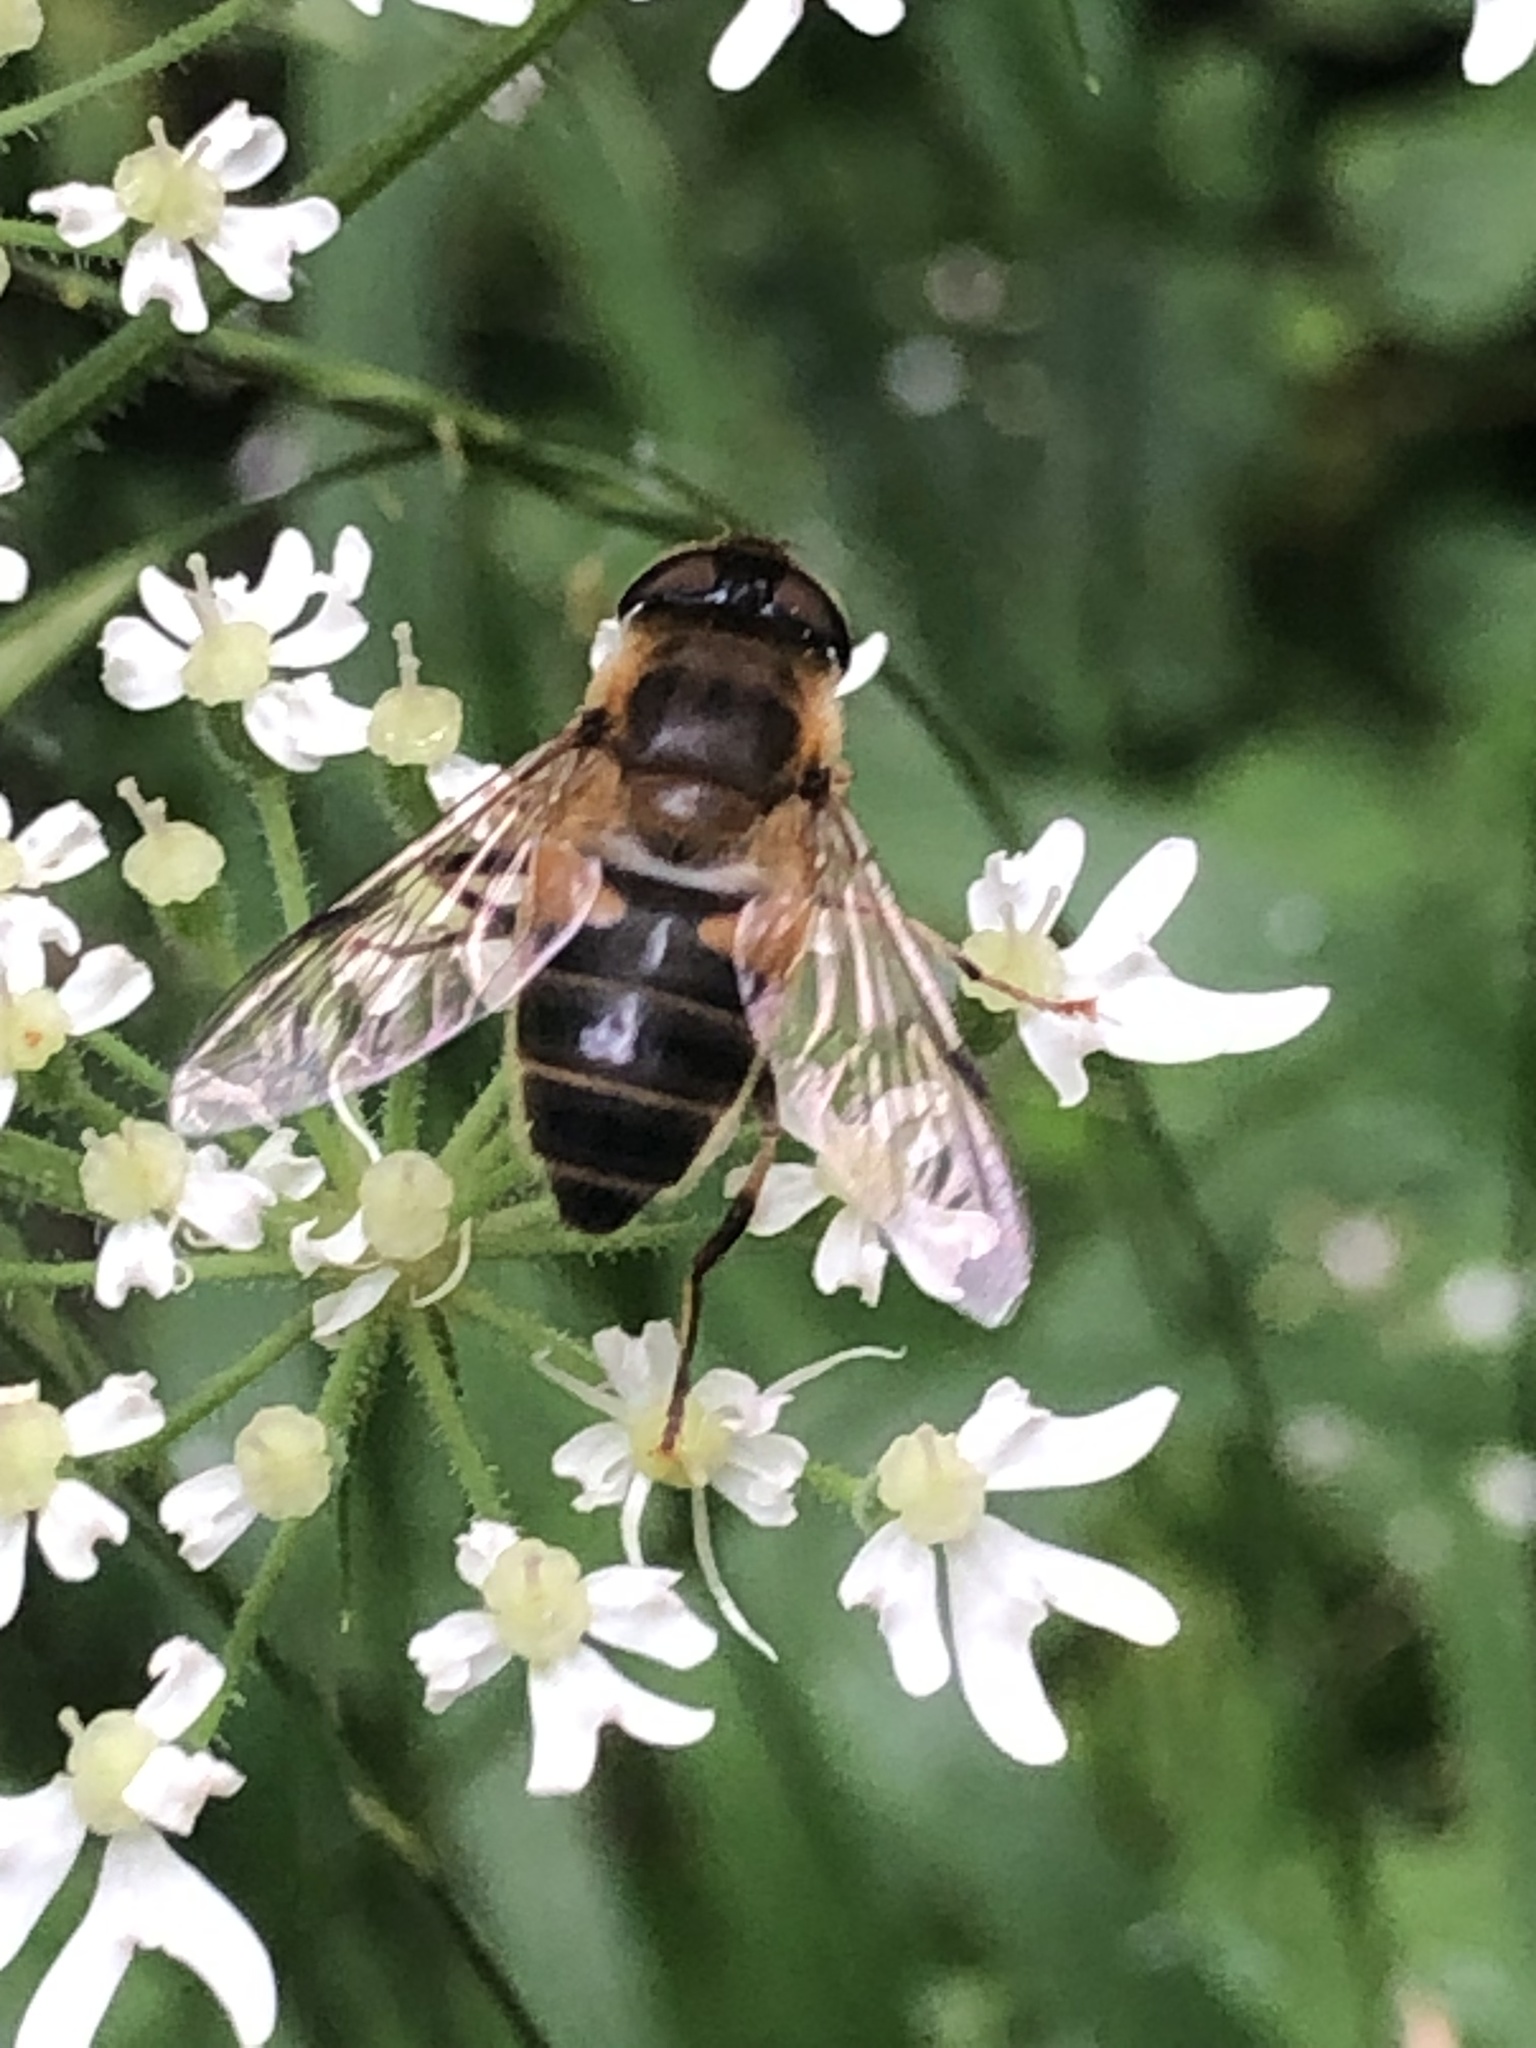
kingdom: Animalia
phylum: Arthropoda
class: Insecta
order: Diptera
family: Syrphidae
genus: Eristalis
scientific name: Eristalis pertinax
